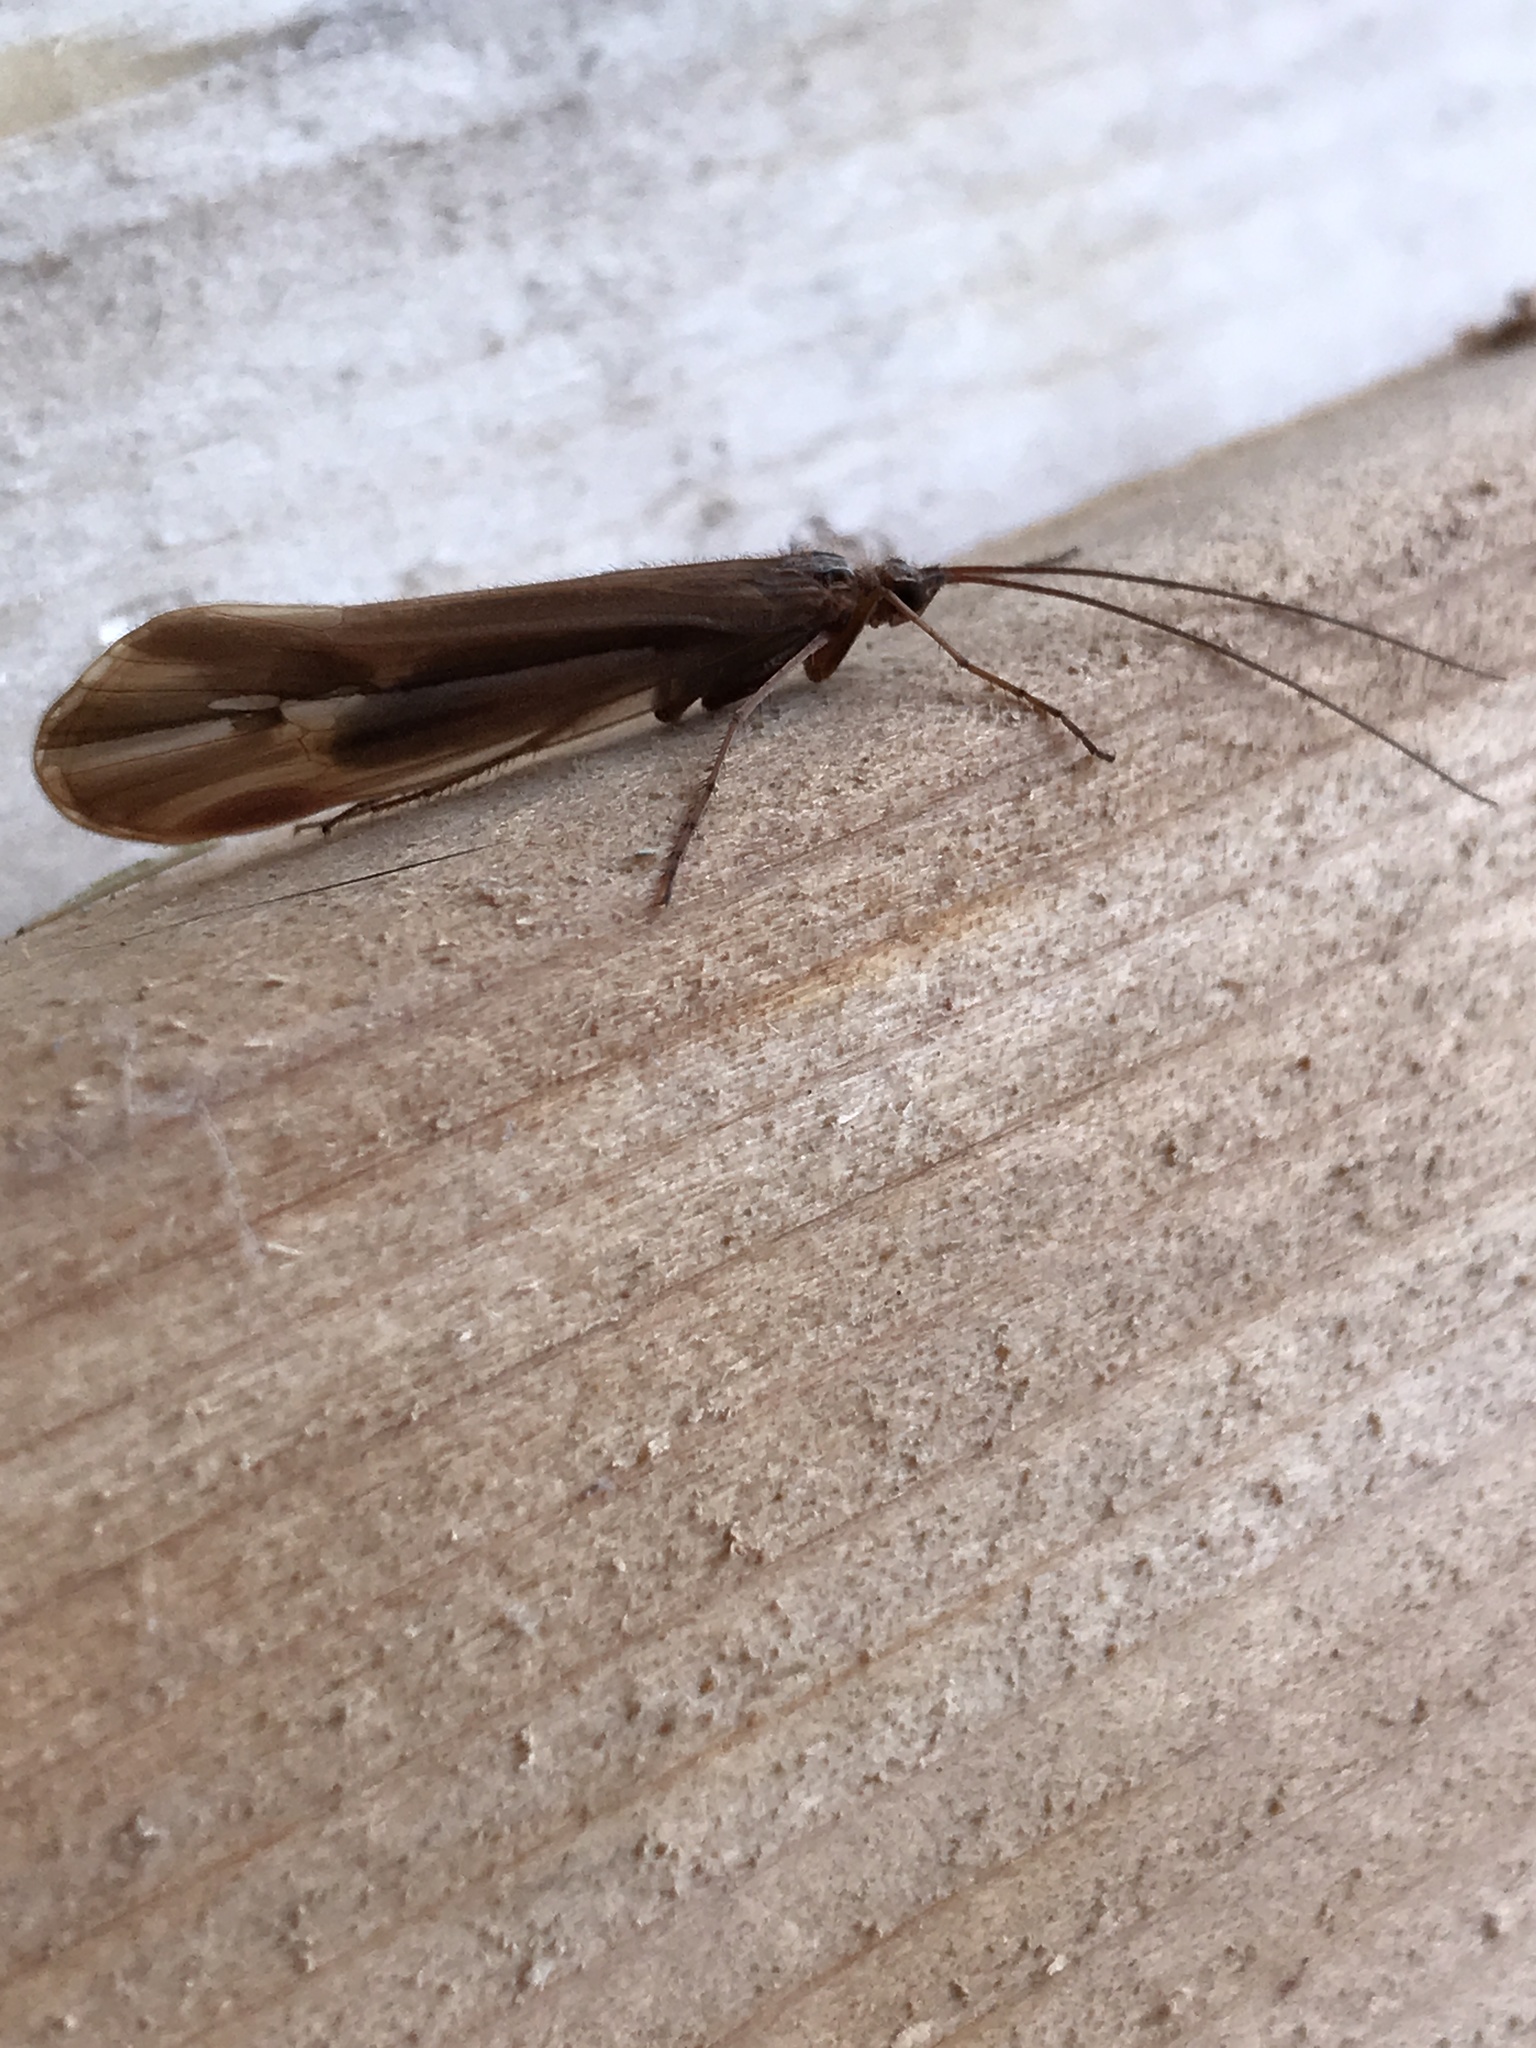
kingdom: Animalia
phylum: Arthropoda
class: Insecta
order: Trichoptera
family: Limnephilidae
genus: Psychoglypha
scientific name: Psychoglypha subborealis
